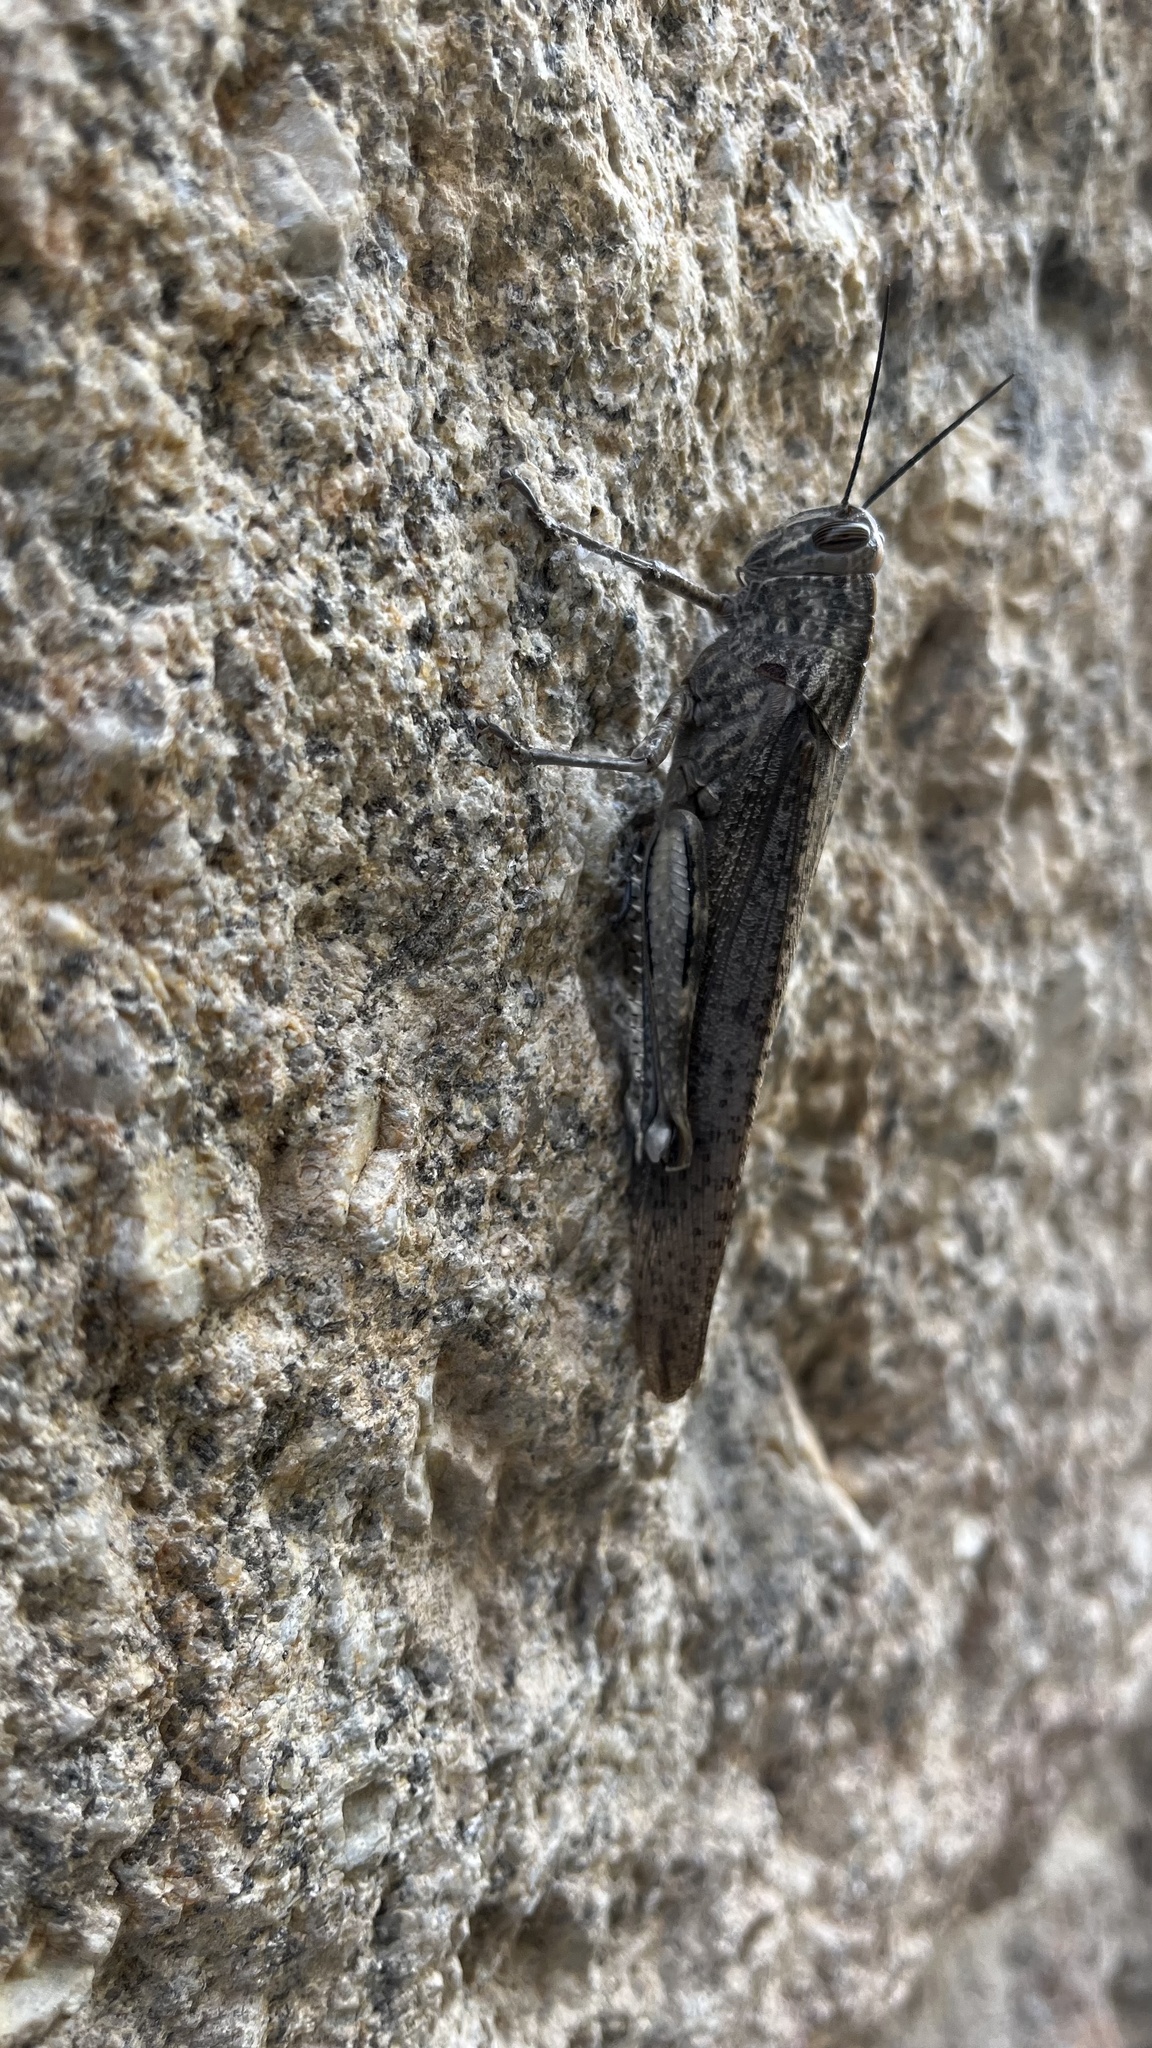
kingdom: Animalia
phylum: Arthropoda
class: Insecta
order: Orthoptera
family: Acrididae
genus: Anacridium
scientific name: Anacridium aegyptium
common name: Egyptian grasshopper
